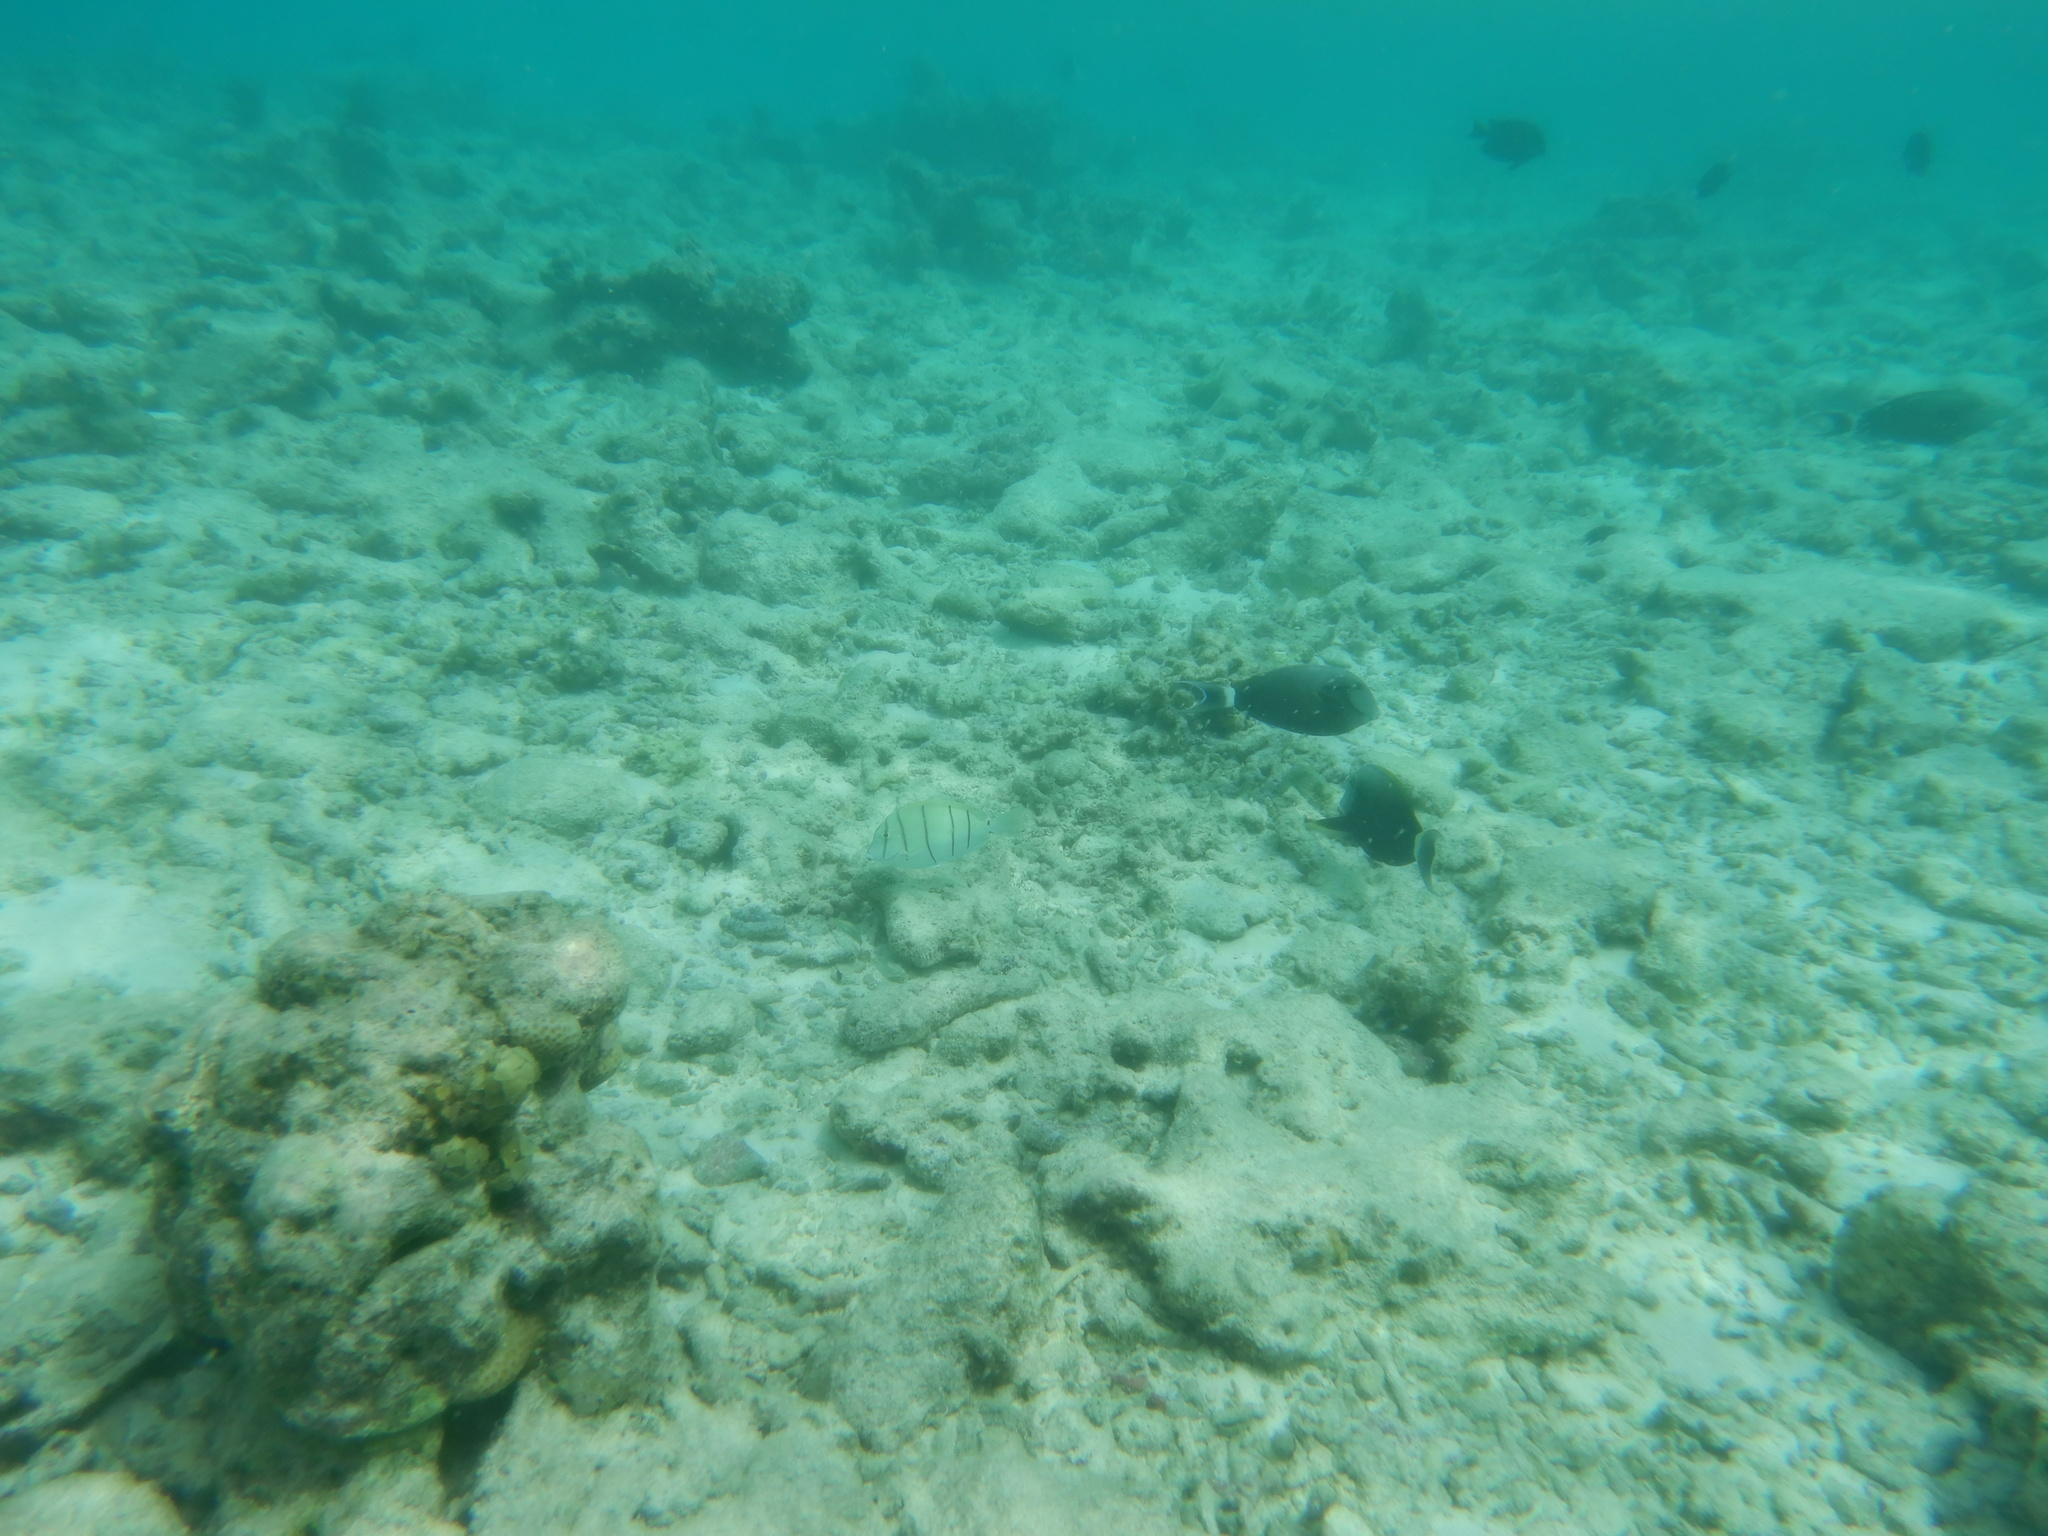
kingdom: Animalia
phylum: Chordata
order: Perciformes
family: Acanthuridae
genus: Acanthurus
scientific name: Acanthurus triostegus
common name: Convict surgeonfish
